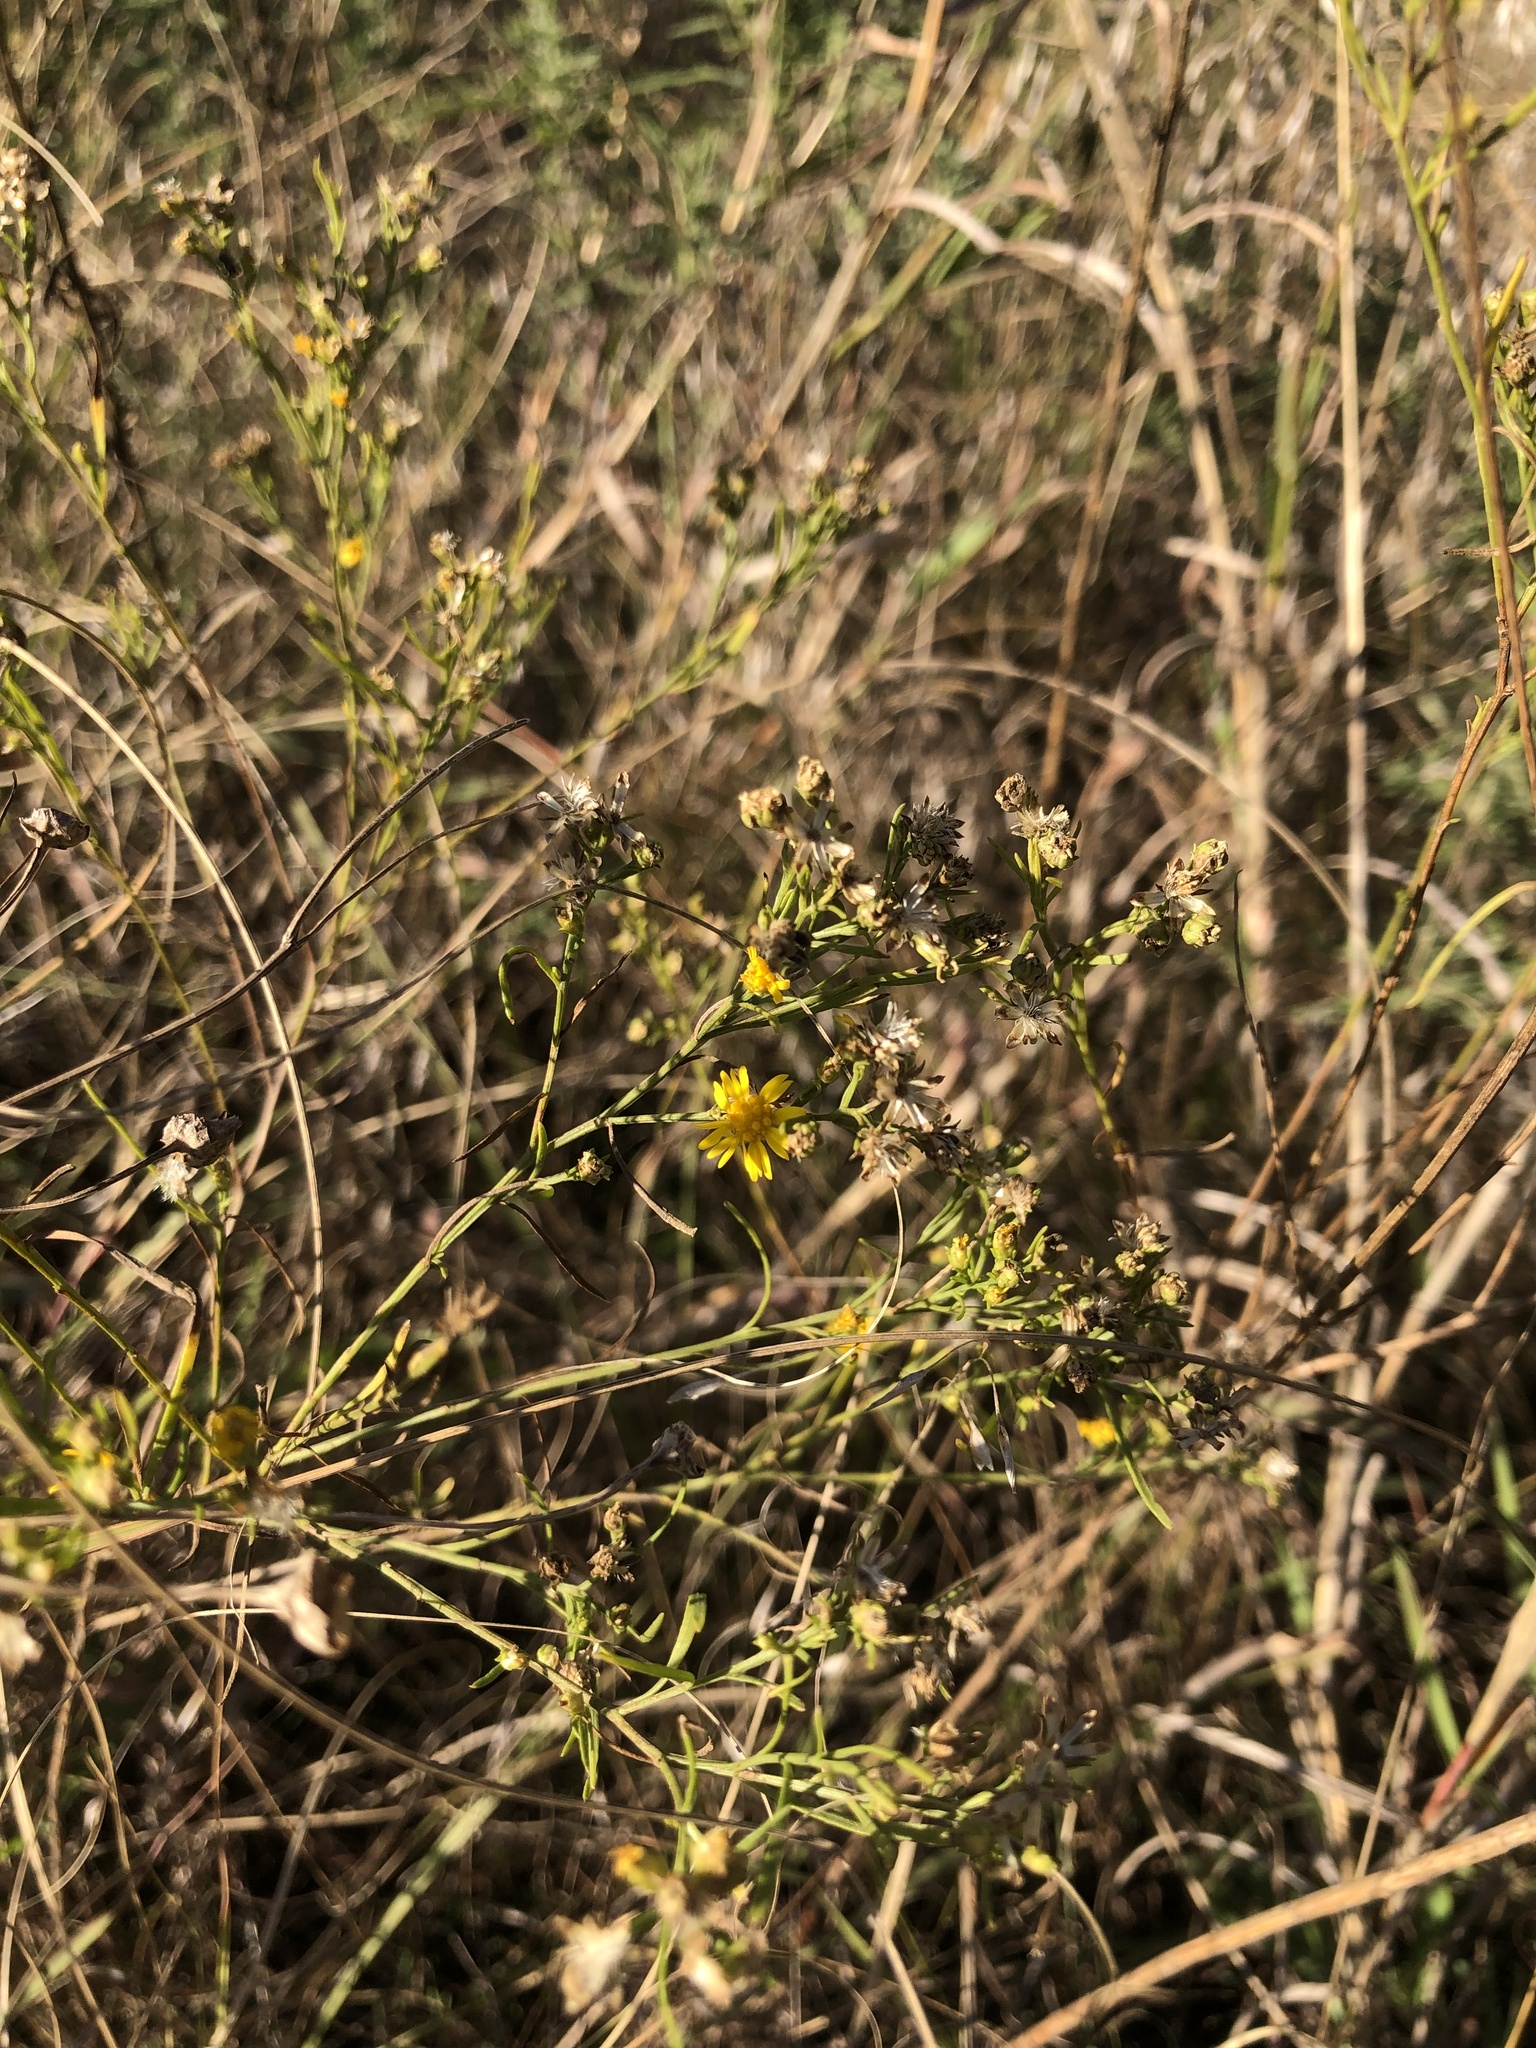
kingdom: Plantae
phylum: Tracheophyta
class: Magnoliopsida
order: Asterales
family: Asteraceae
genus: Amphiachyris
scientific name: Amphiachyris dracunculoides
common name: Broomweed
